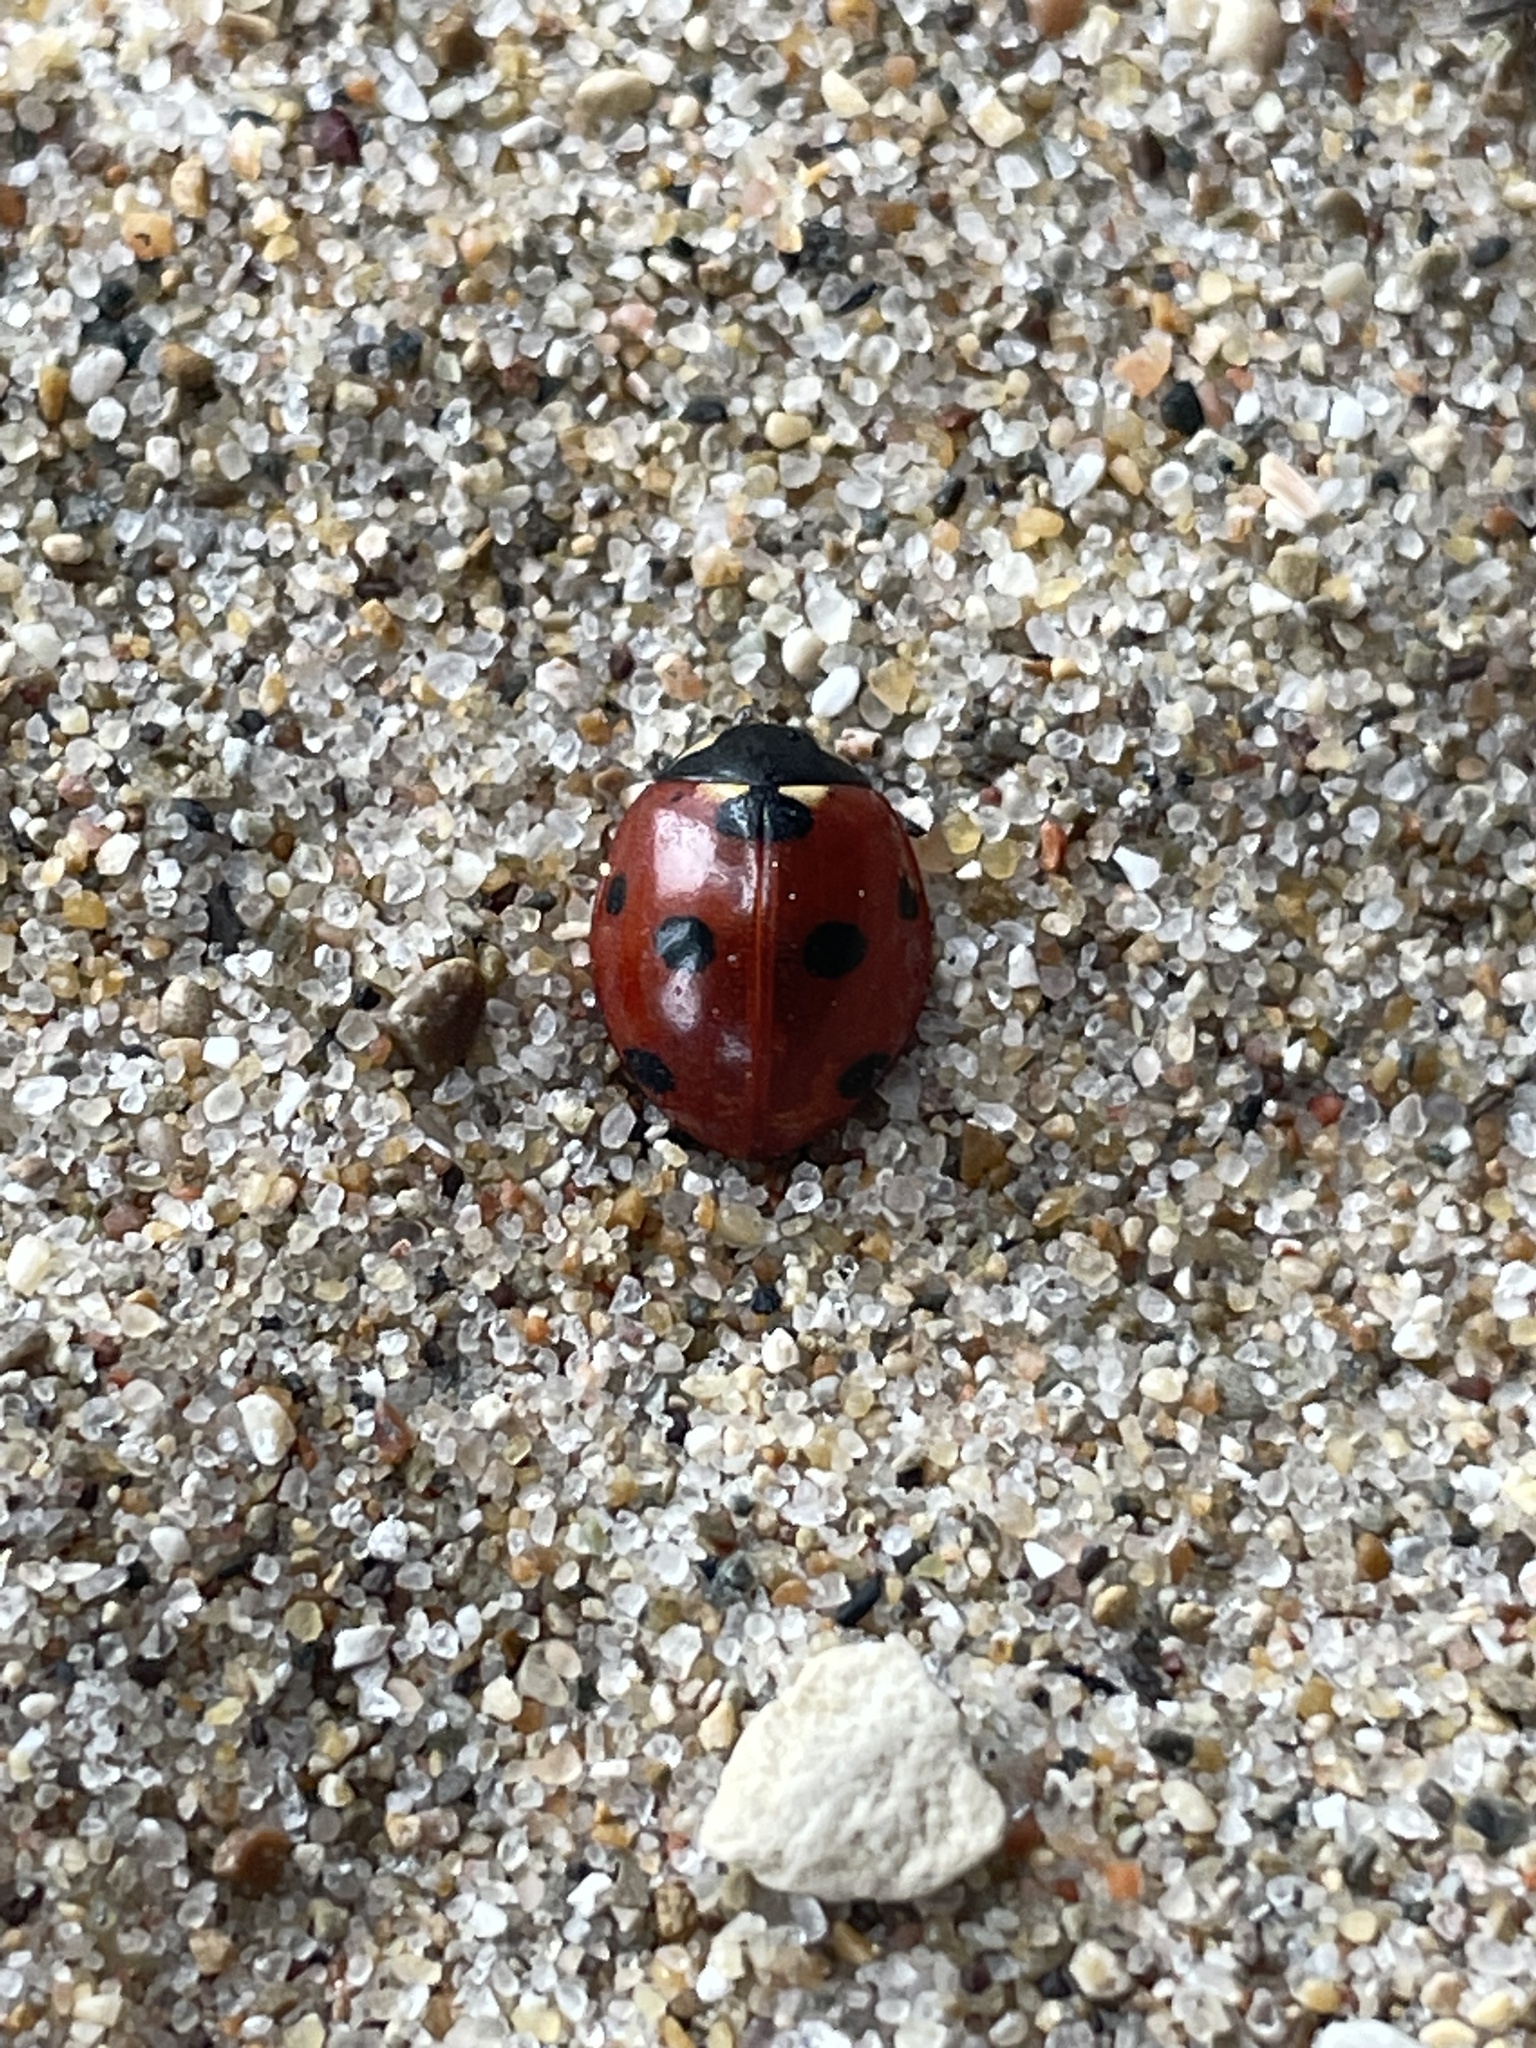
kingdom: Animalia
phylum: Arthropoda
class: Insecta
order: Coleoptera
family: Coccinellidae
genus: Coccinella
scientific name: Coccinella septempunctata
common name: Sevenspotted lady beetle
